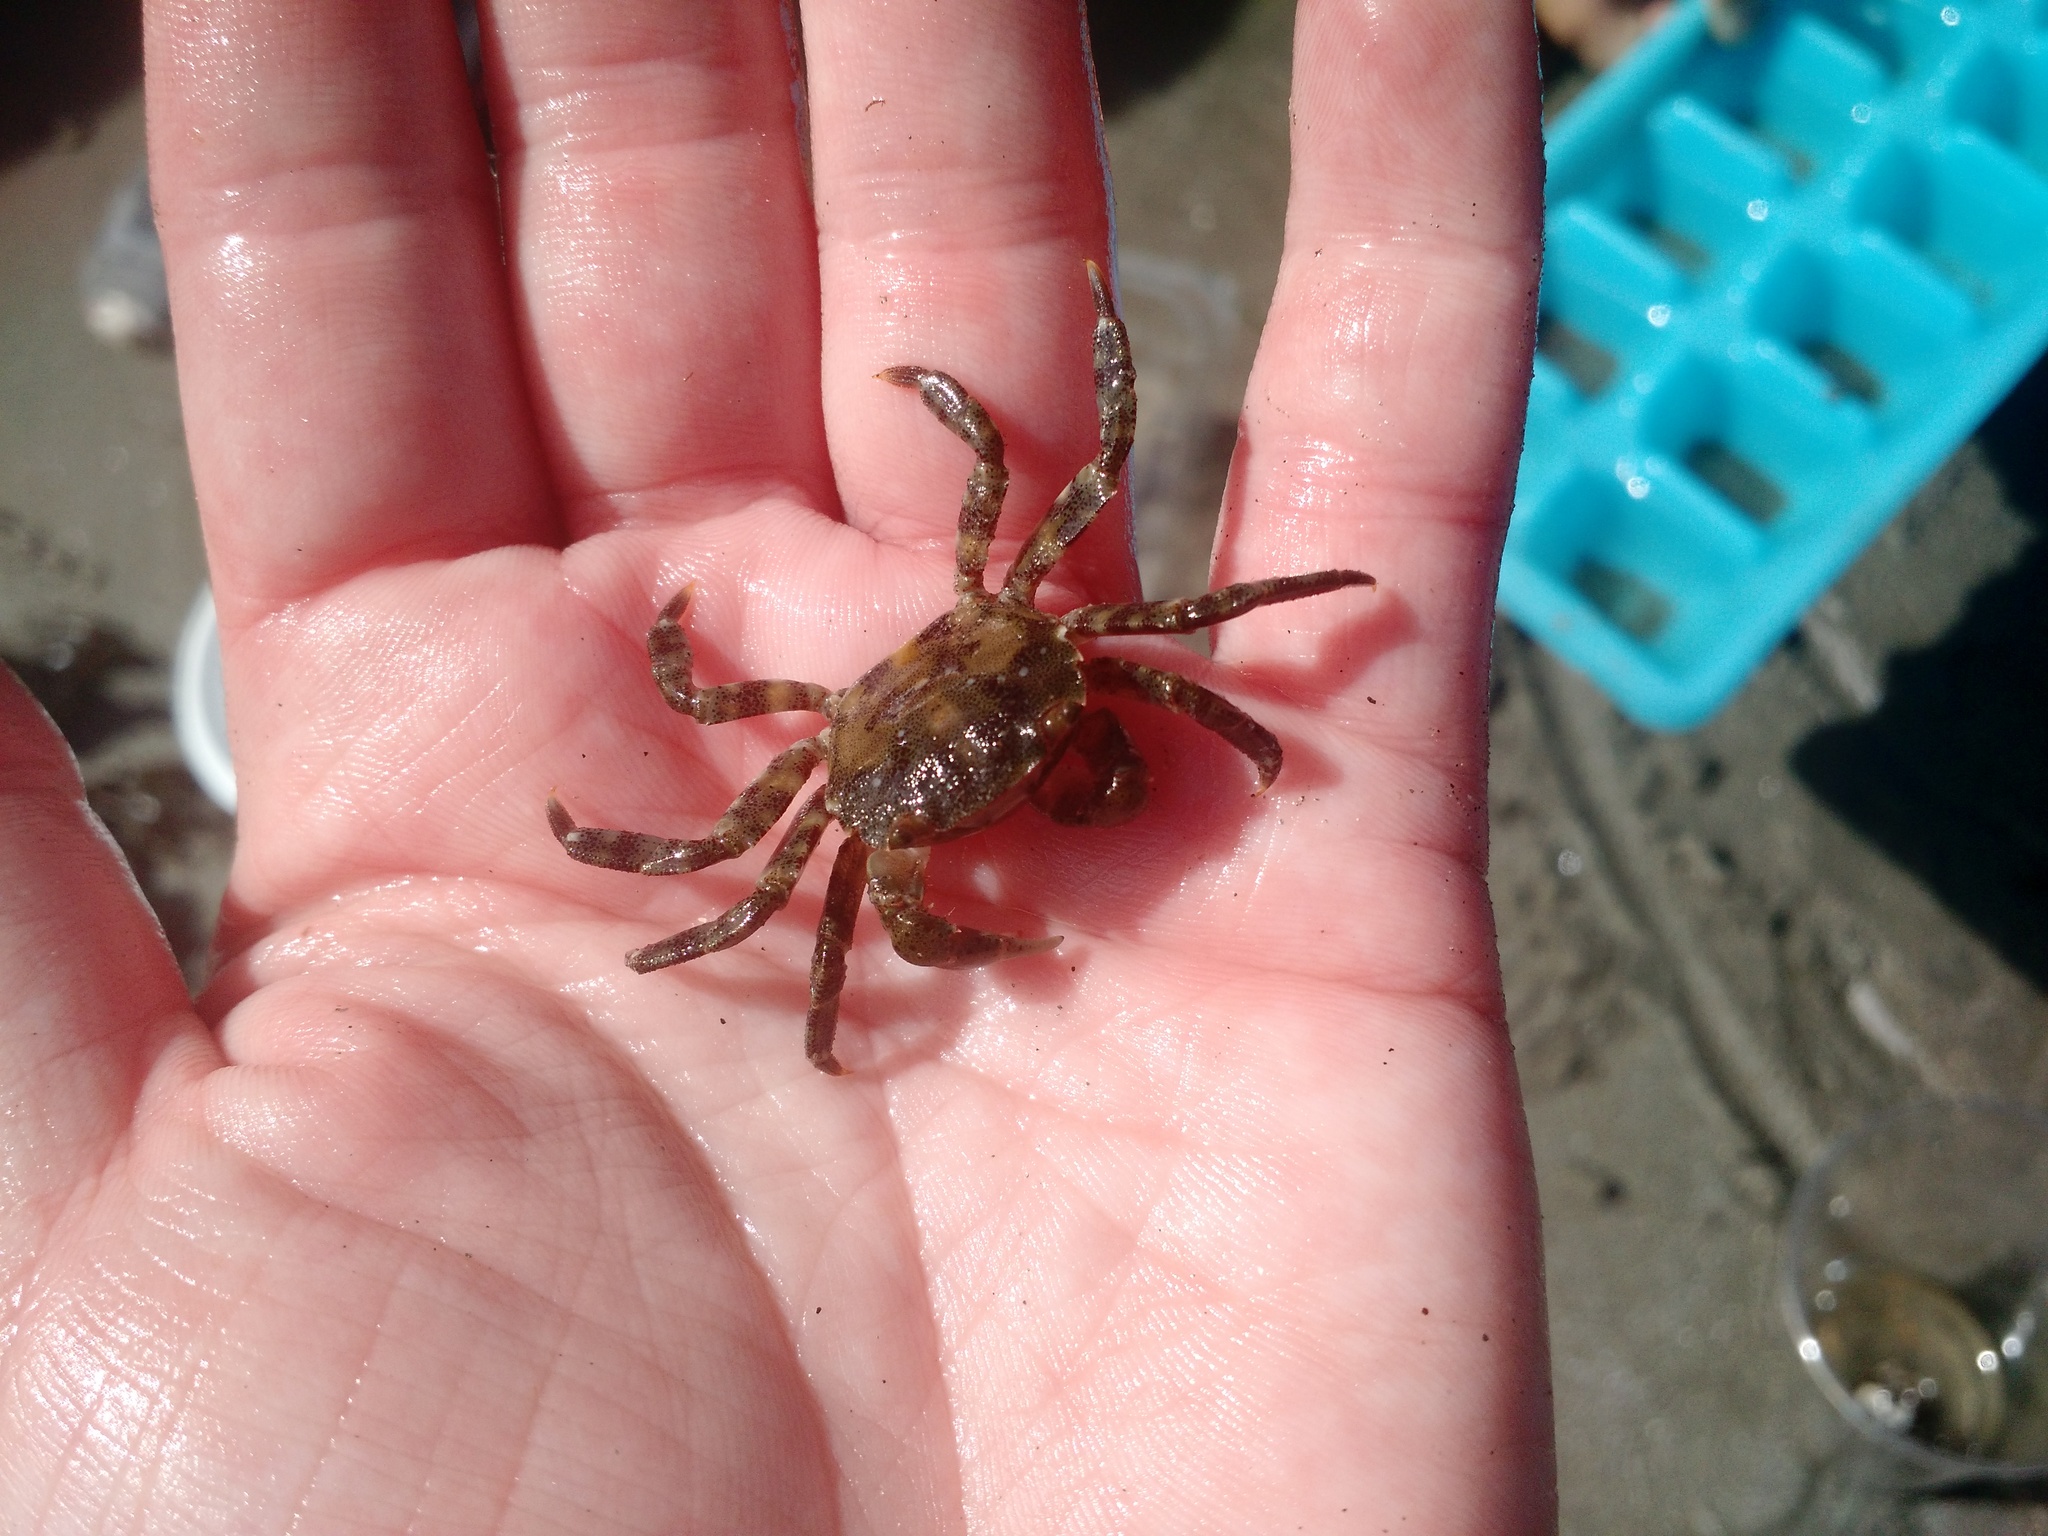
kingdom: Animalia
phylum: Arthropoda
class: Malacostraca
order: Decapoda
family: Varunidae
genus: Hemigrapsus
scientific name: Hemigrapsus sanguineus
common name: Asian shore crab
